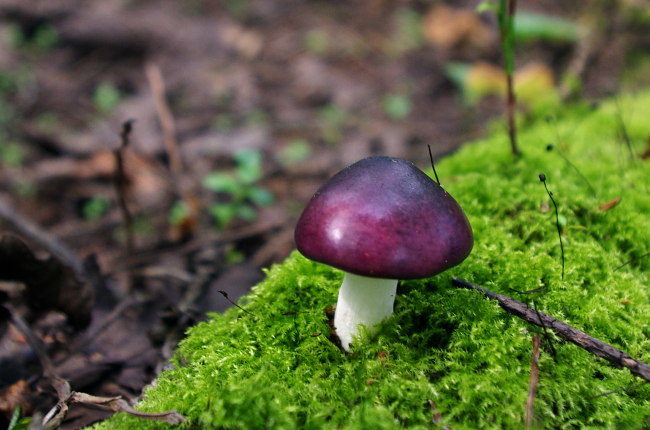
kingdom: Fungi
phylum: Basidiomycota
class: Agaricomycetes
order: Russulales
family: Russulaceae
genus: Russula
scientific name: Russula atropurpurea
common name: Blackish-purple russula
